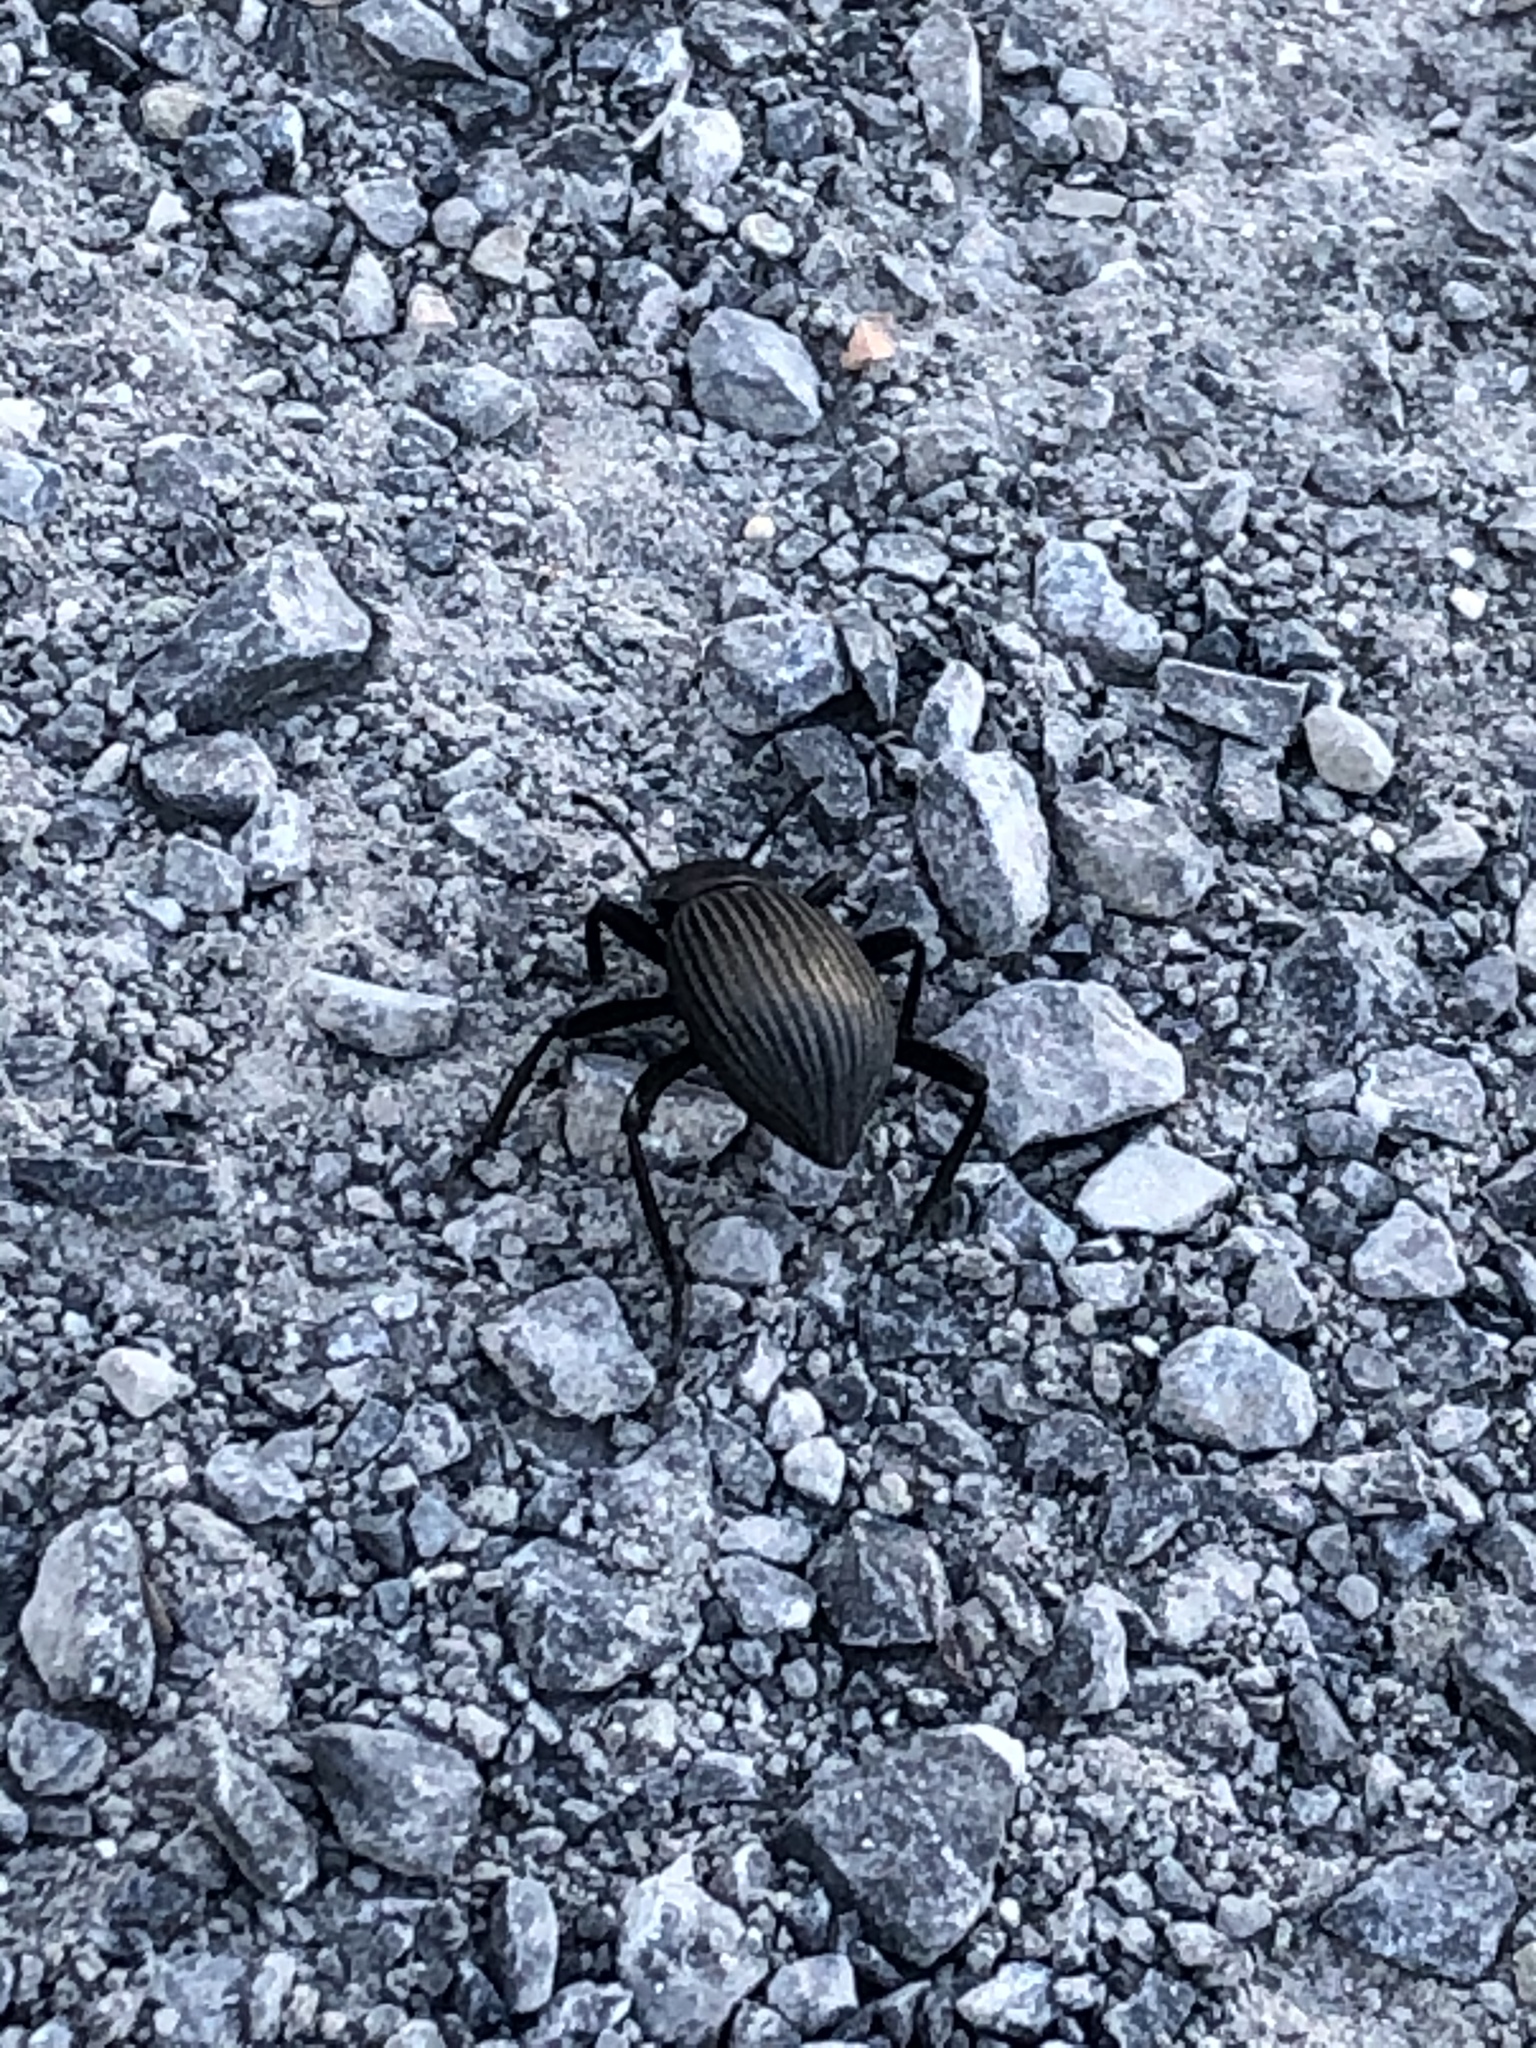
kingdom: Animalia
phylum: Arthropoda
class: Insecta
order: Coleoptera
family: Tenebrionidae
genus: Eleodes
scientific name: Eleodes obscura
